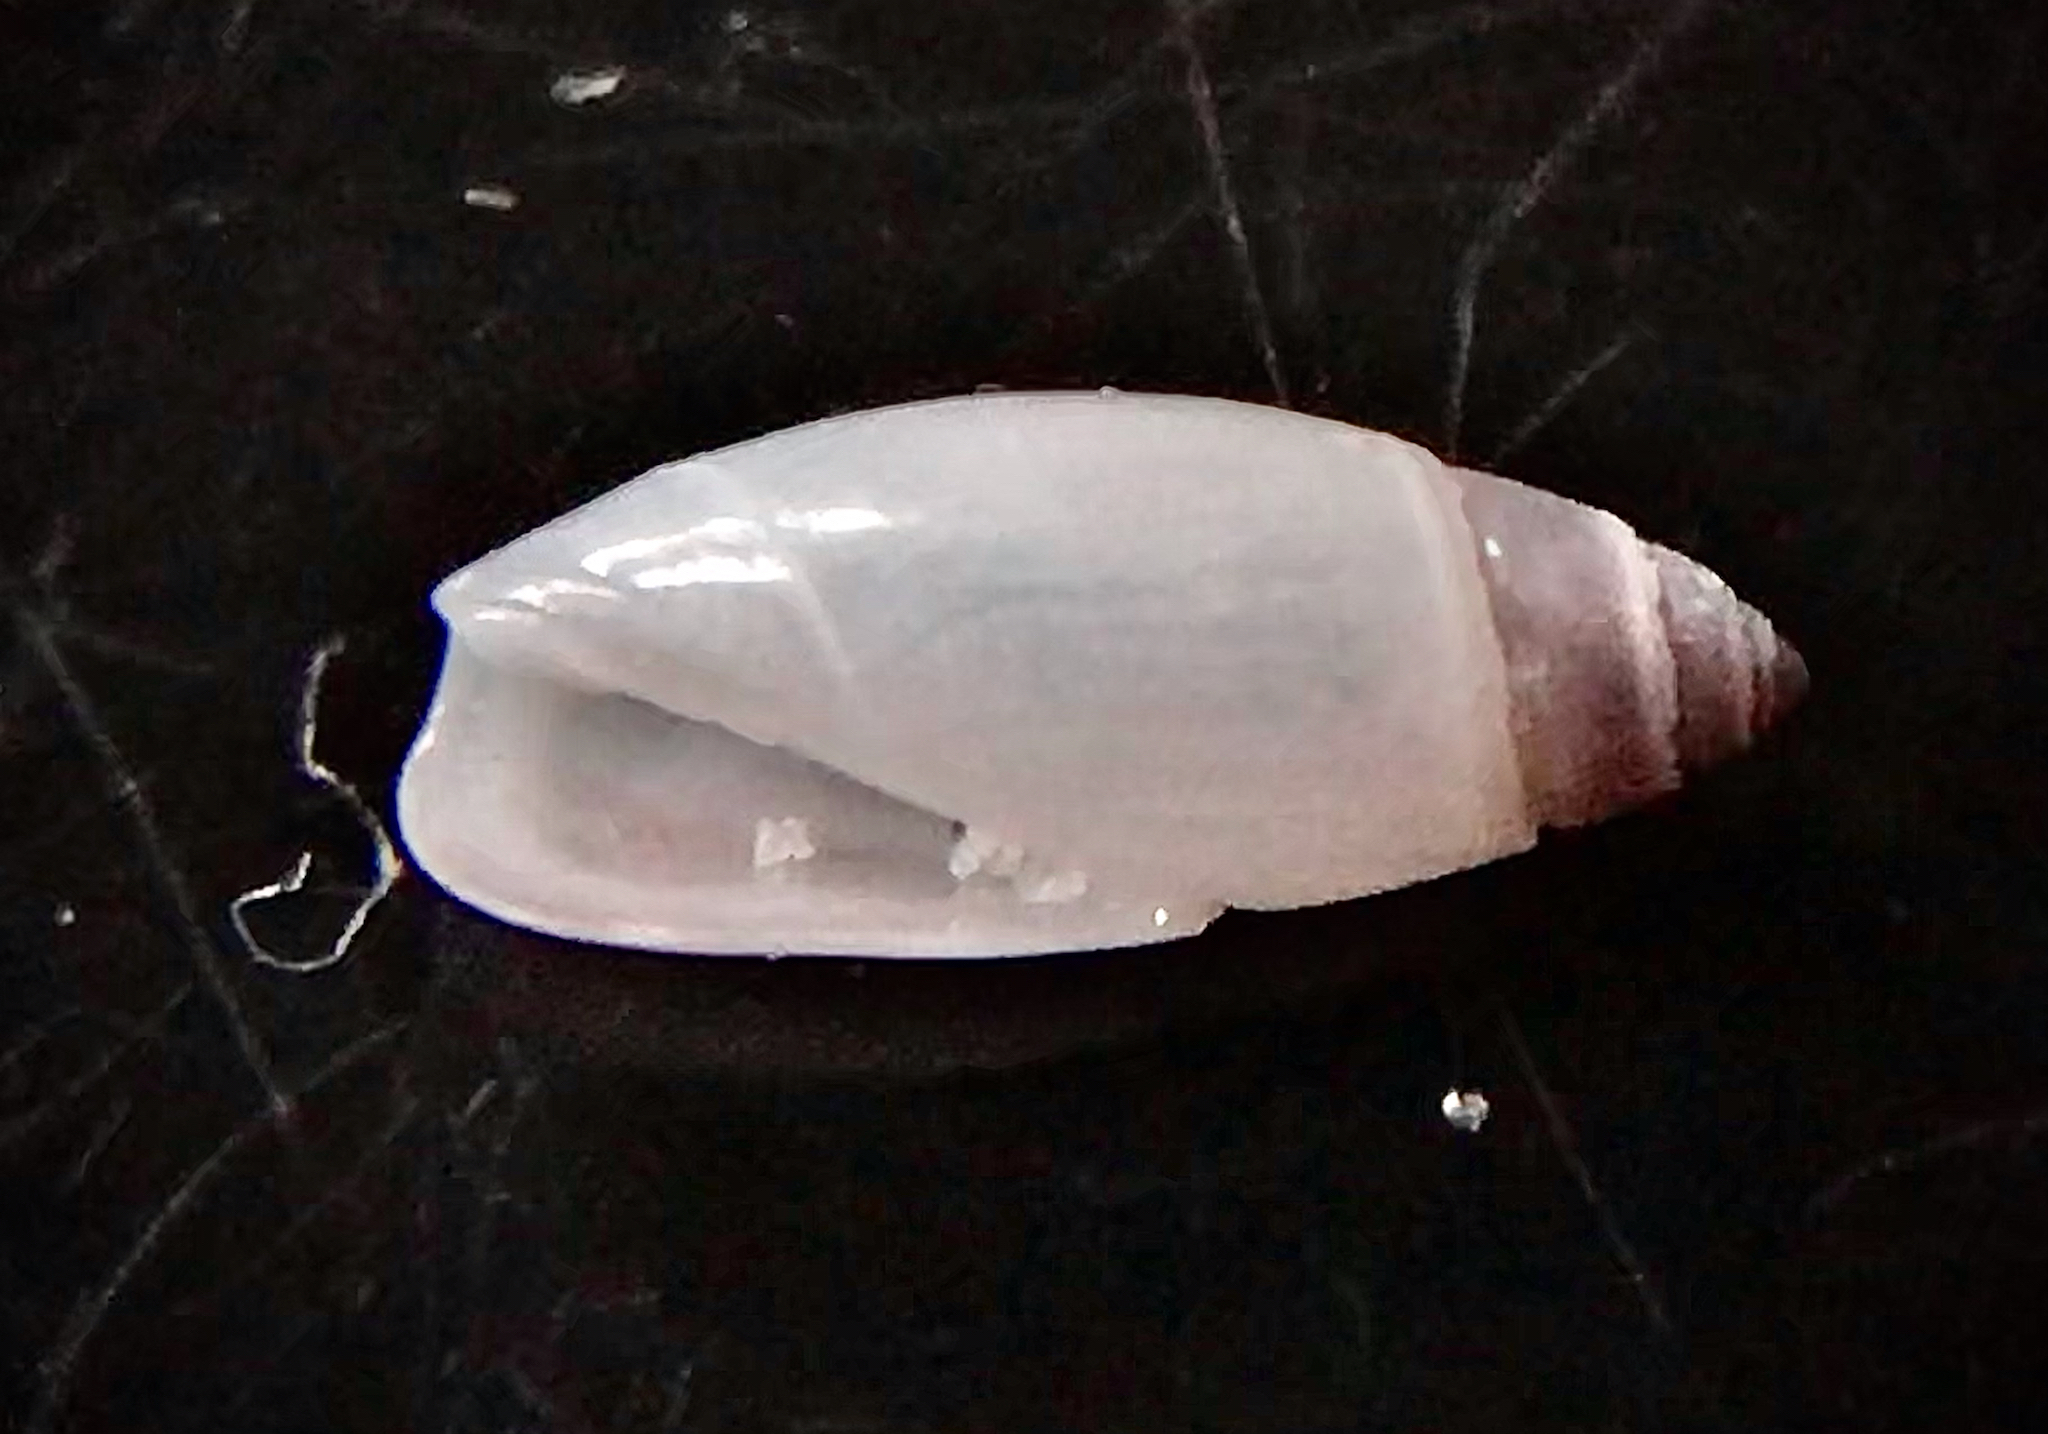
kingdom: Animalia
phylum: Mollusca
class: Gastropoda
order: Neogastropoda
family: Olividae
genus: Olivella
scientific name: Olivella pusilla
